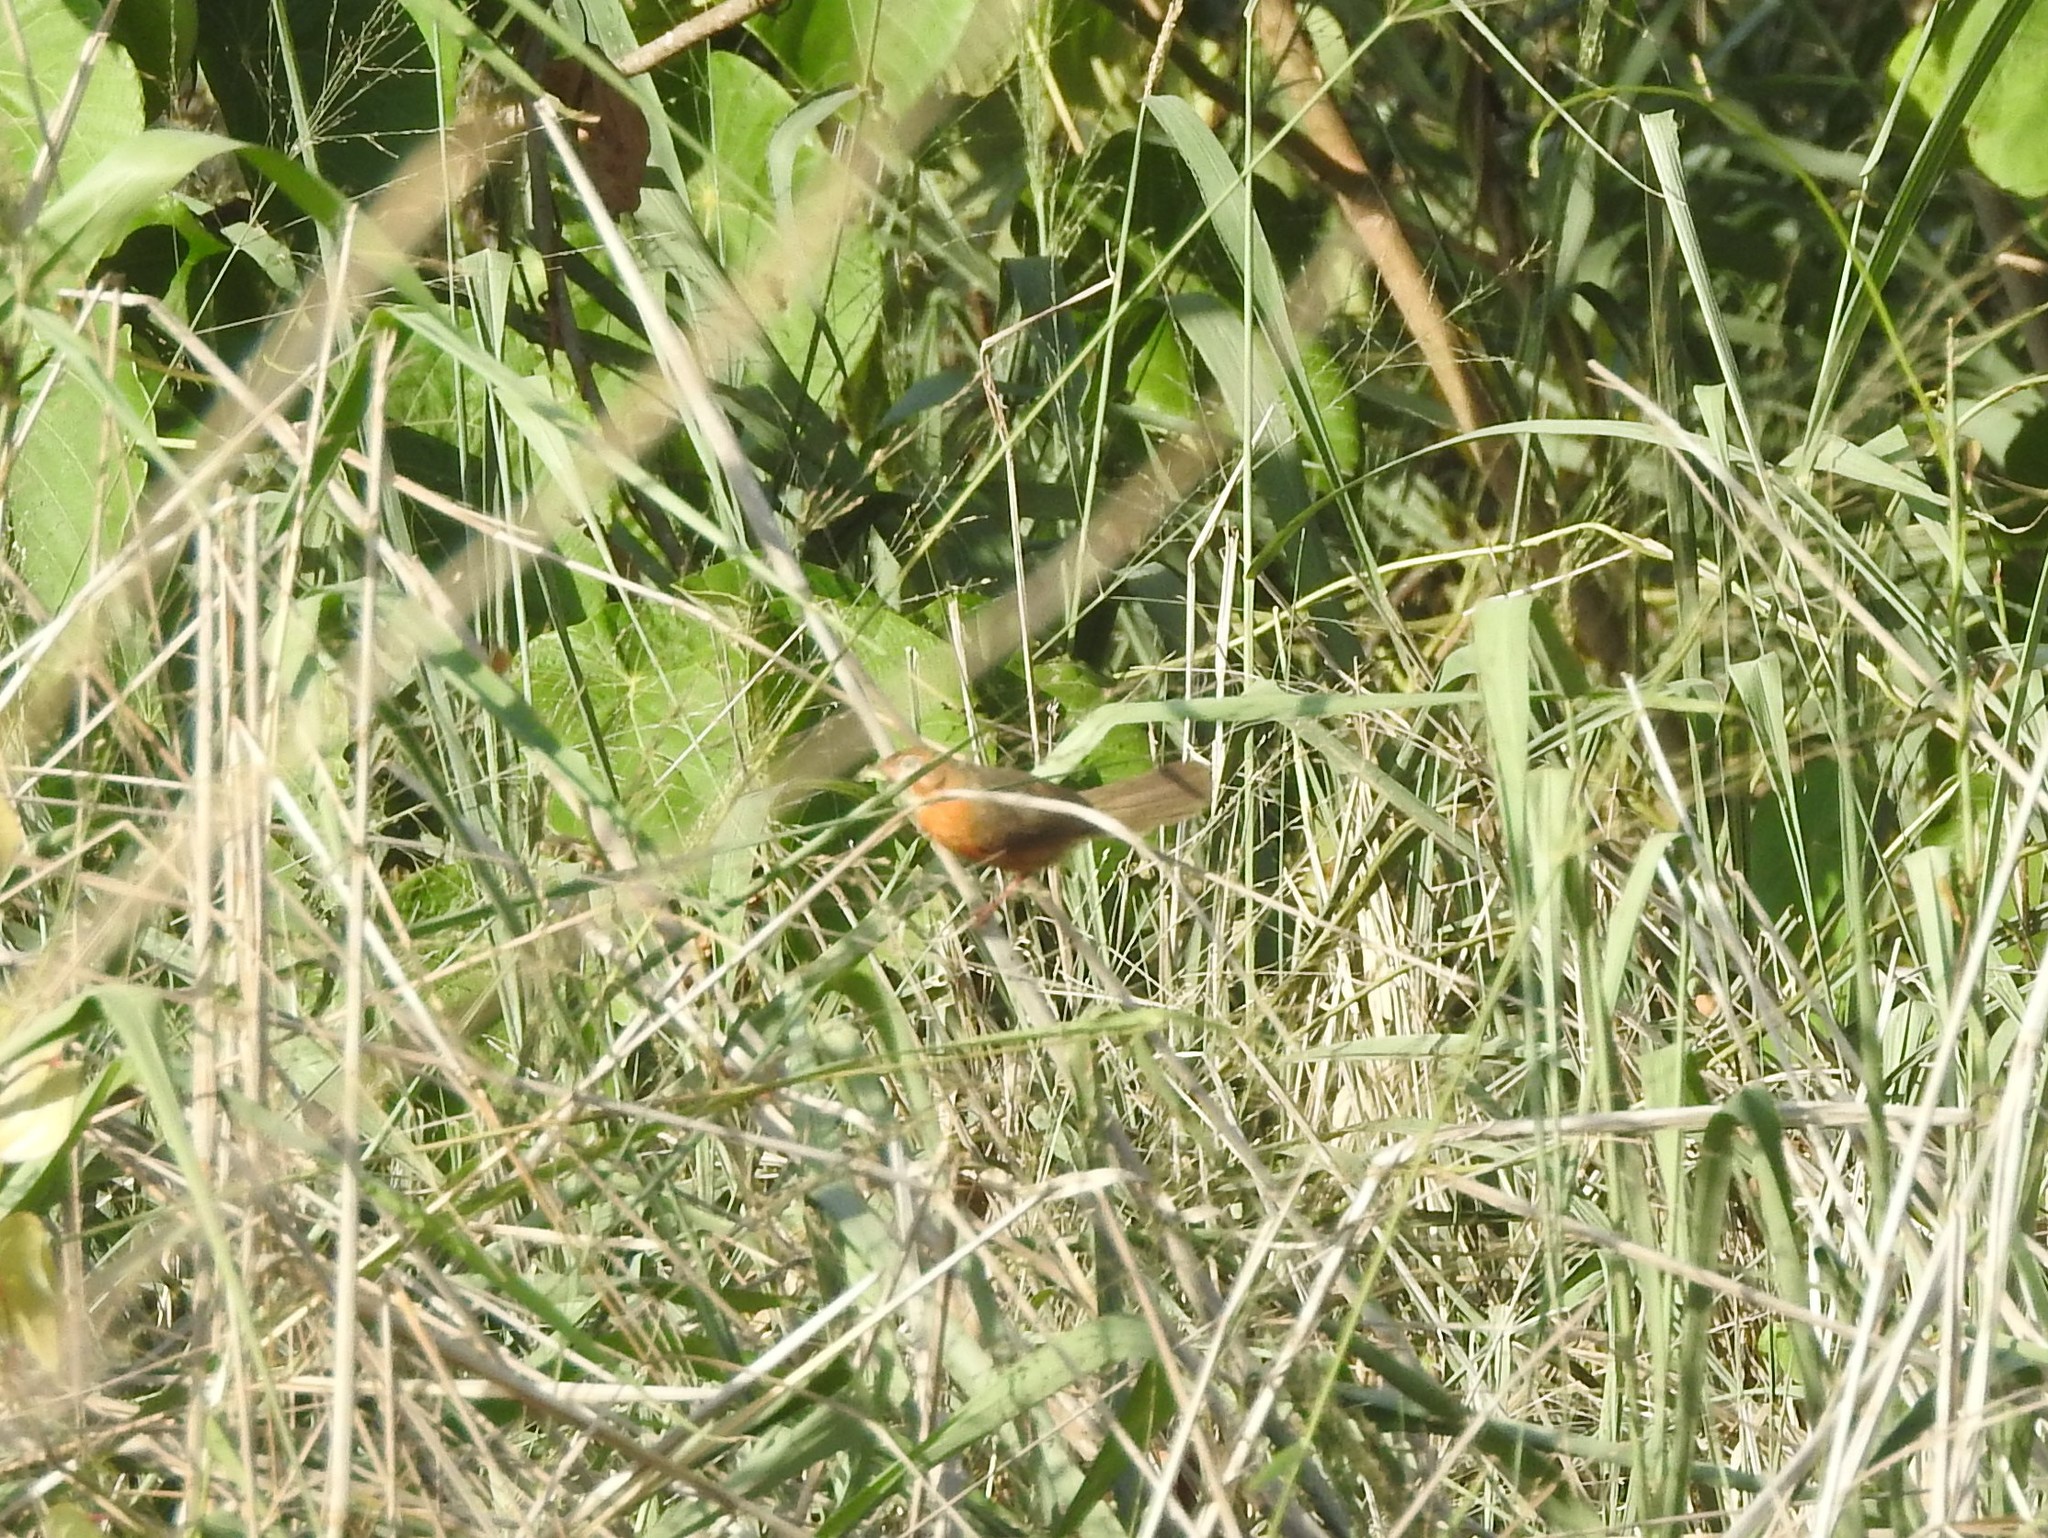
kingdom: Animalia
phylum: Chordata
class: Aves
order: Passeriformes
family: Timaliidae
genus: Dumetia
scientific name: Dumetia hyperythra
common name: Tawny-bellied babbler
